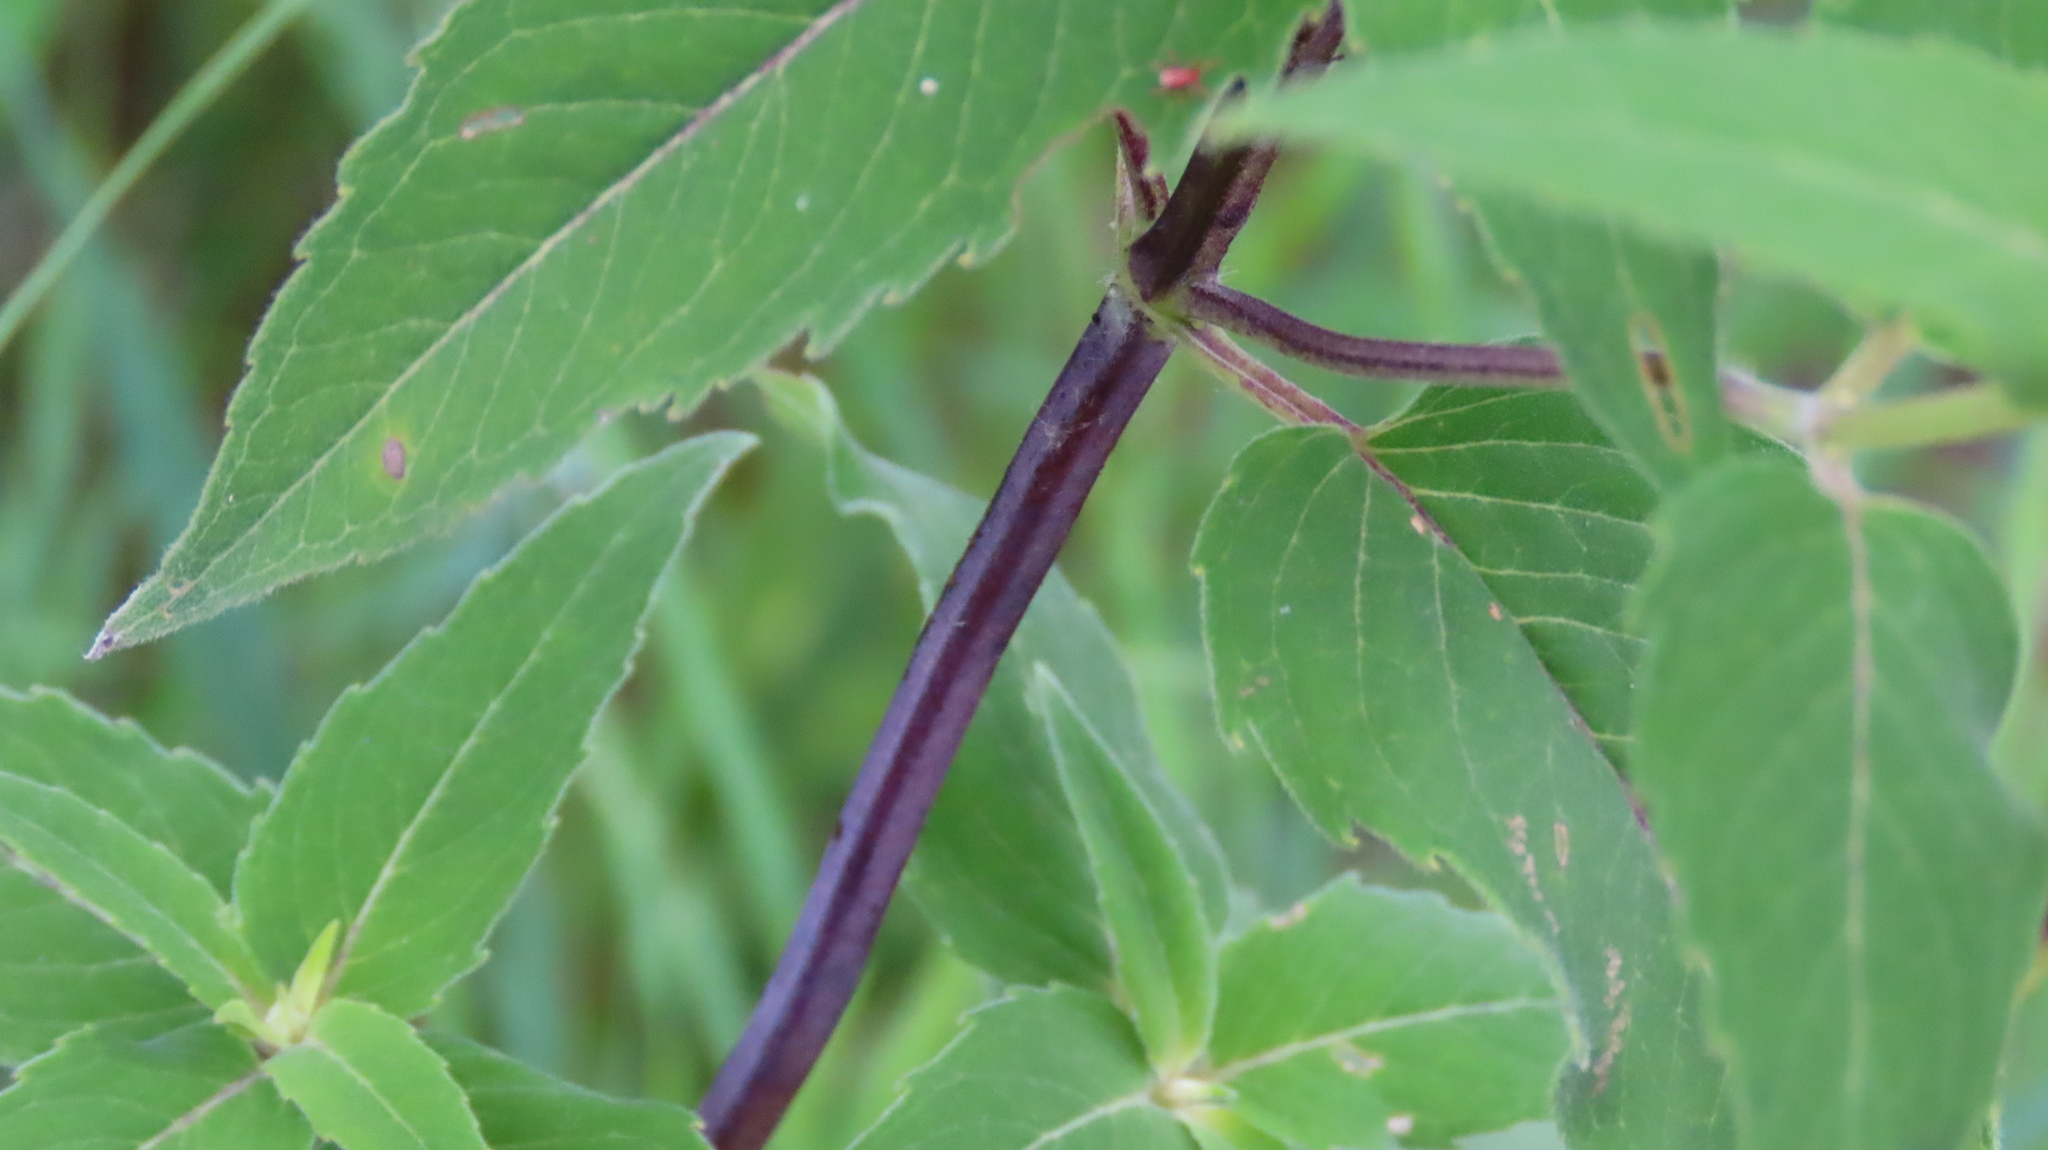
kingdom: Plantae
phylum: Tracheophyta
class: Magnoliopsida
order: Lamiales
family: Lamiaceae
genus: Monarda
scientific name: Monarda fistulosa
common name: Purple beebalm
